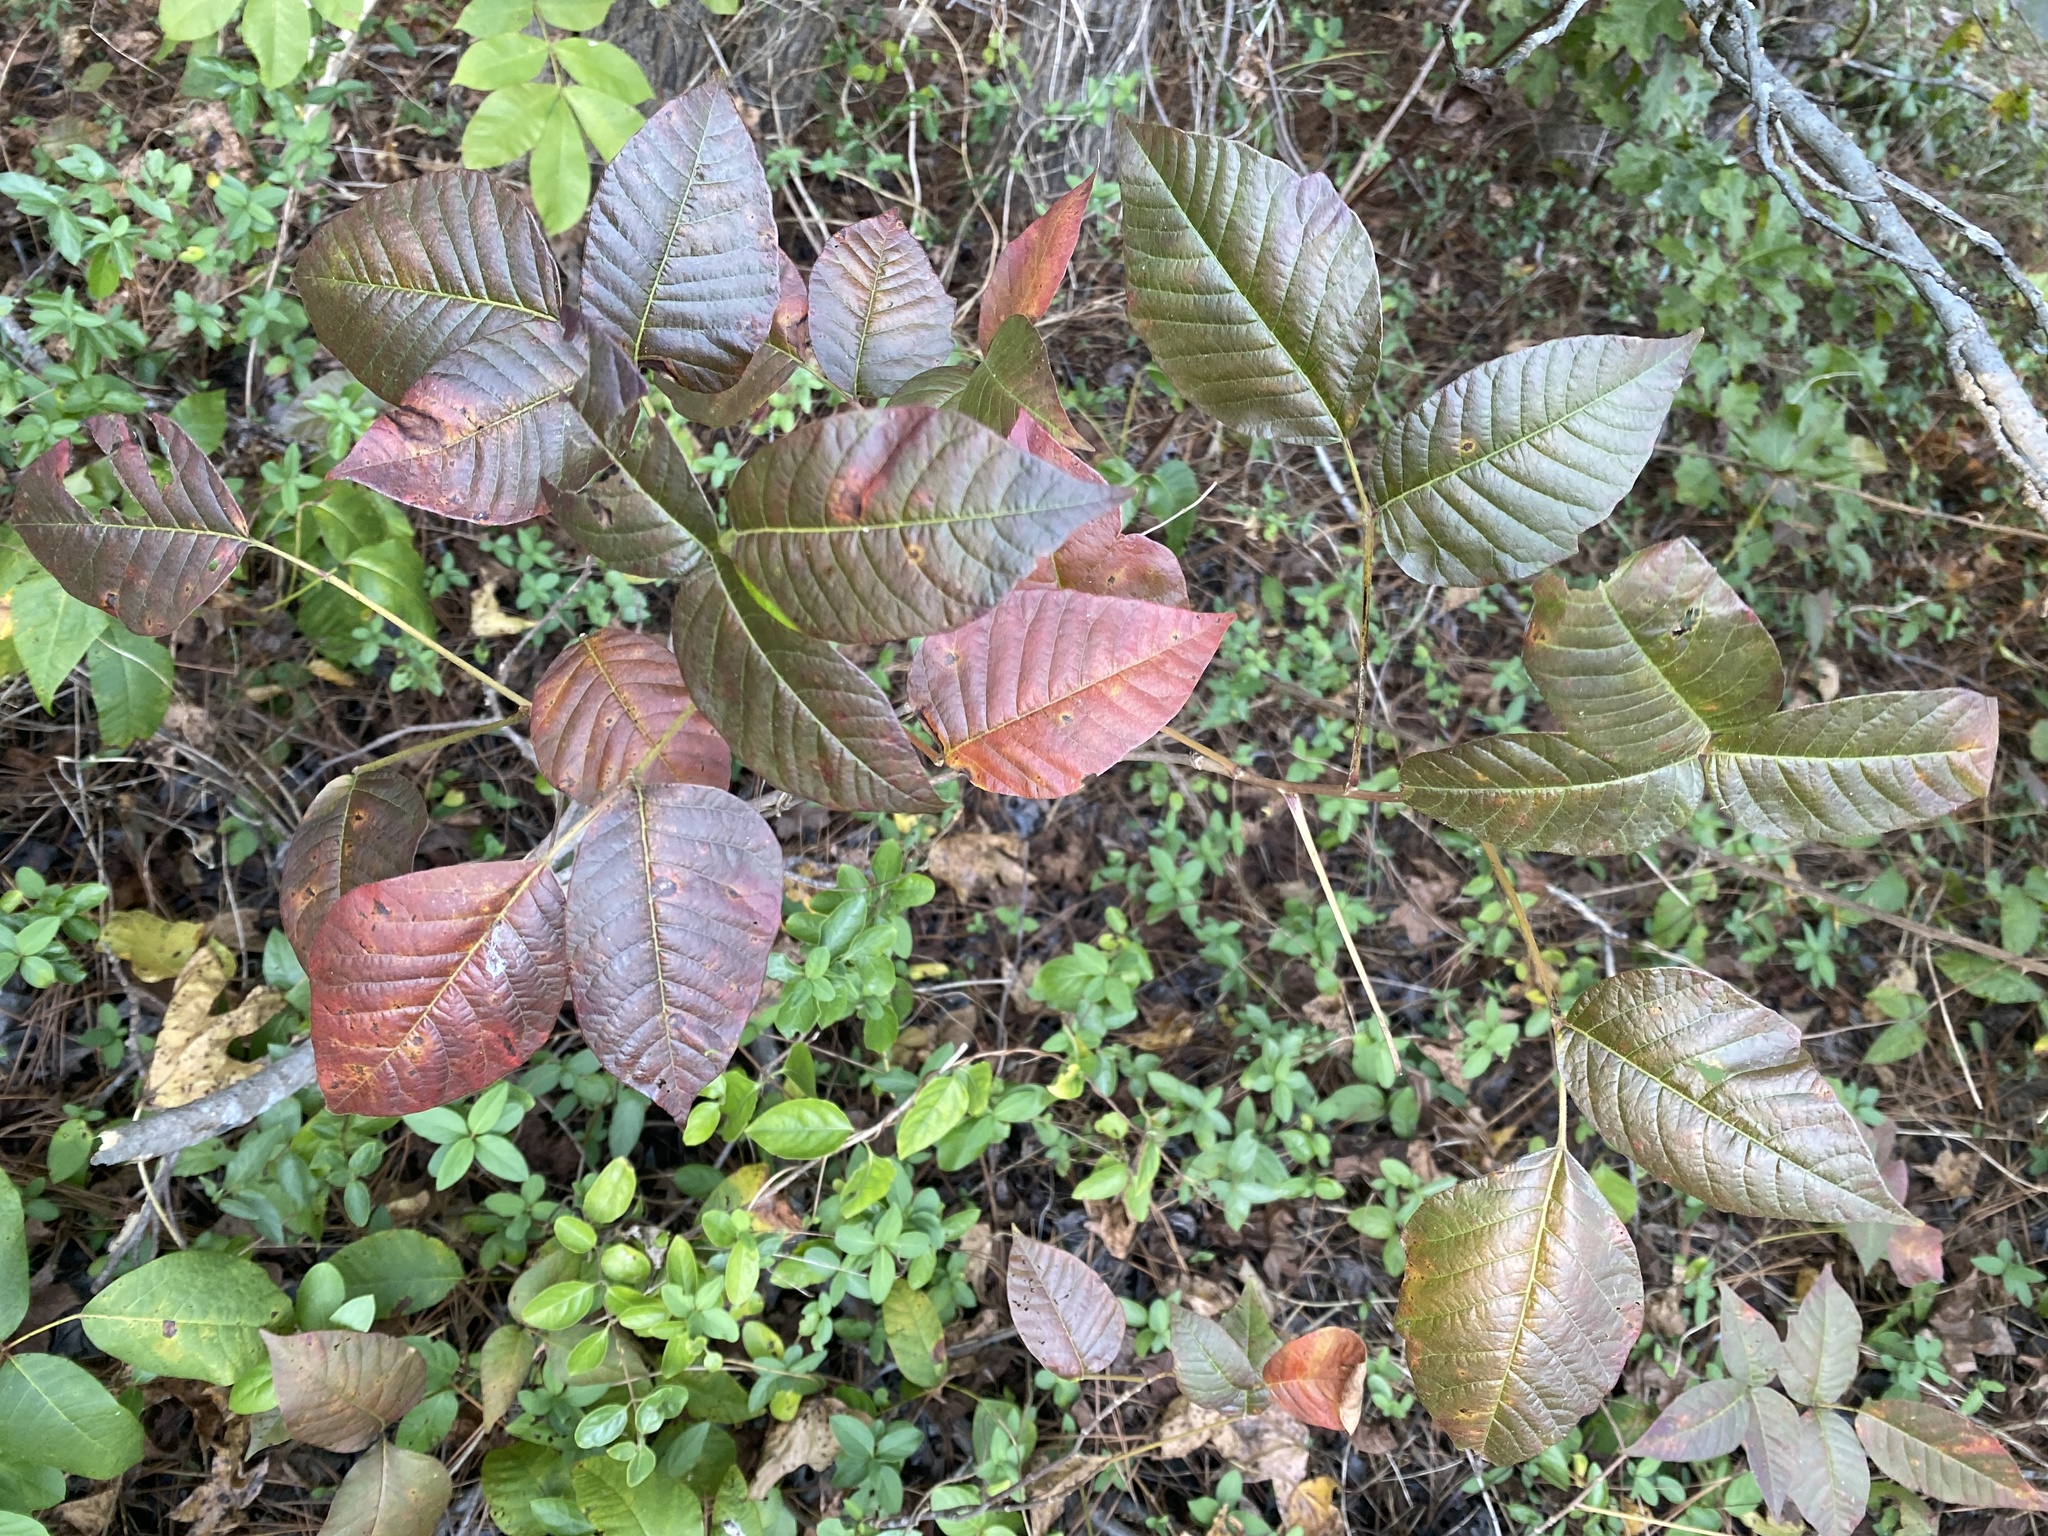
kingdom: Plantae
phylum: Tracheophyta
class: Magnoliopsida
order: Sapindales
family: Anacardiaceae
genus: Toxicodendron
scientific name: Toxicodendron radicans
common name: Poison ivy
